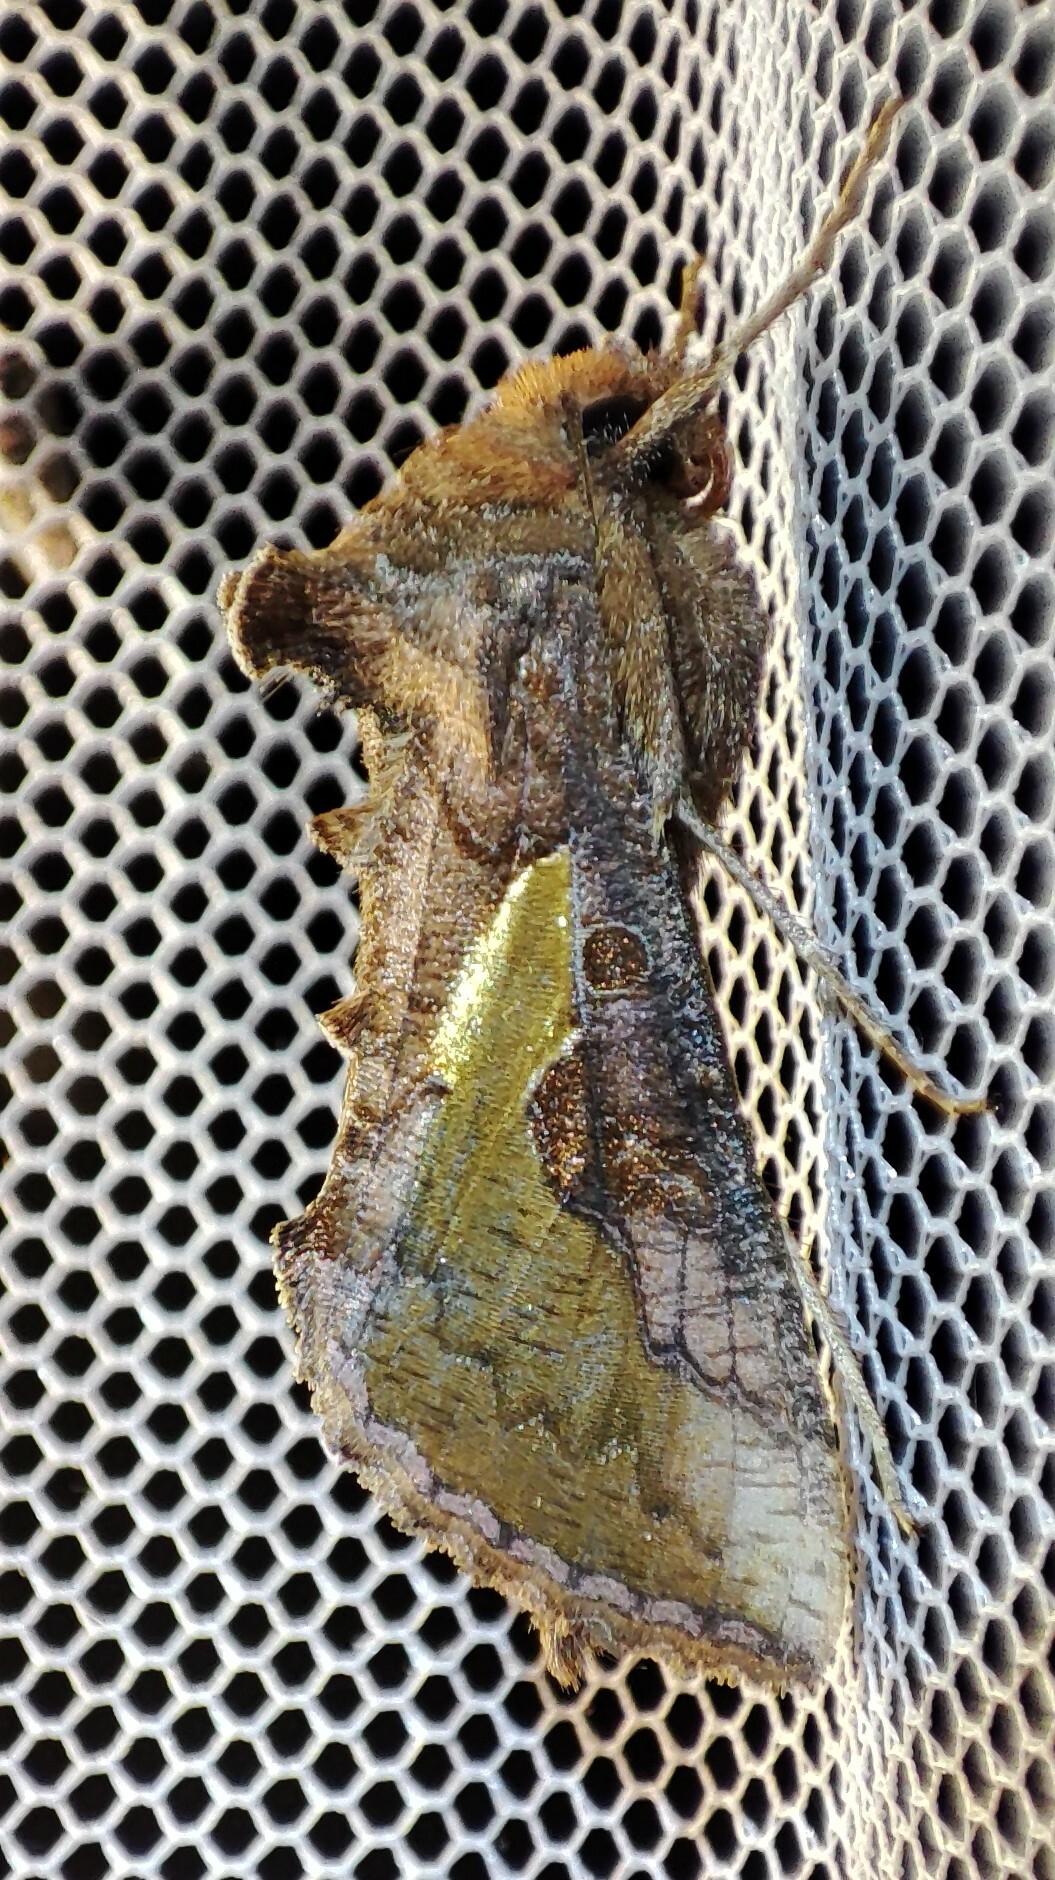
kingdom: Animalia
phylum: Arthropoda
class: Insecta
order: Lepidoptera
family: Noctuidae
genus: Thysanoplusia
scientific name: Thysanoplusia orichalcea
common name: Slender burnished brass, golden plusia
